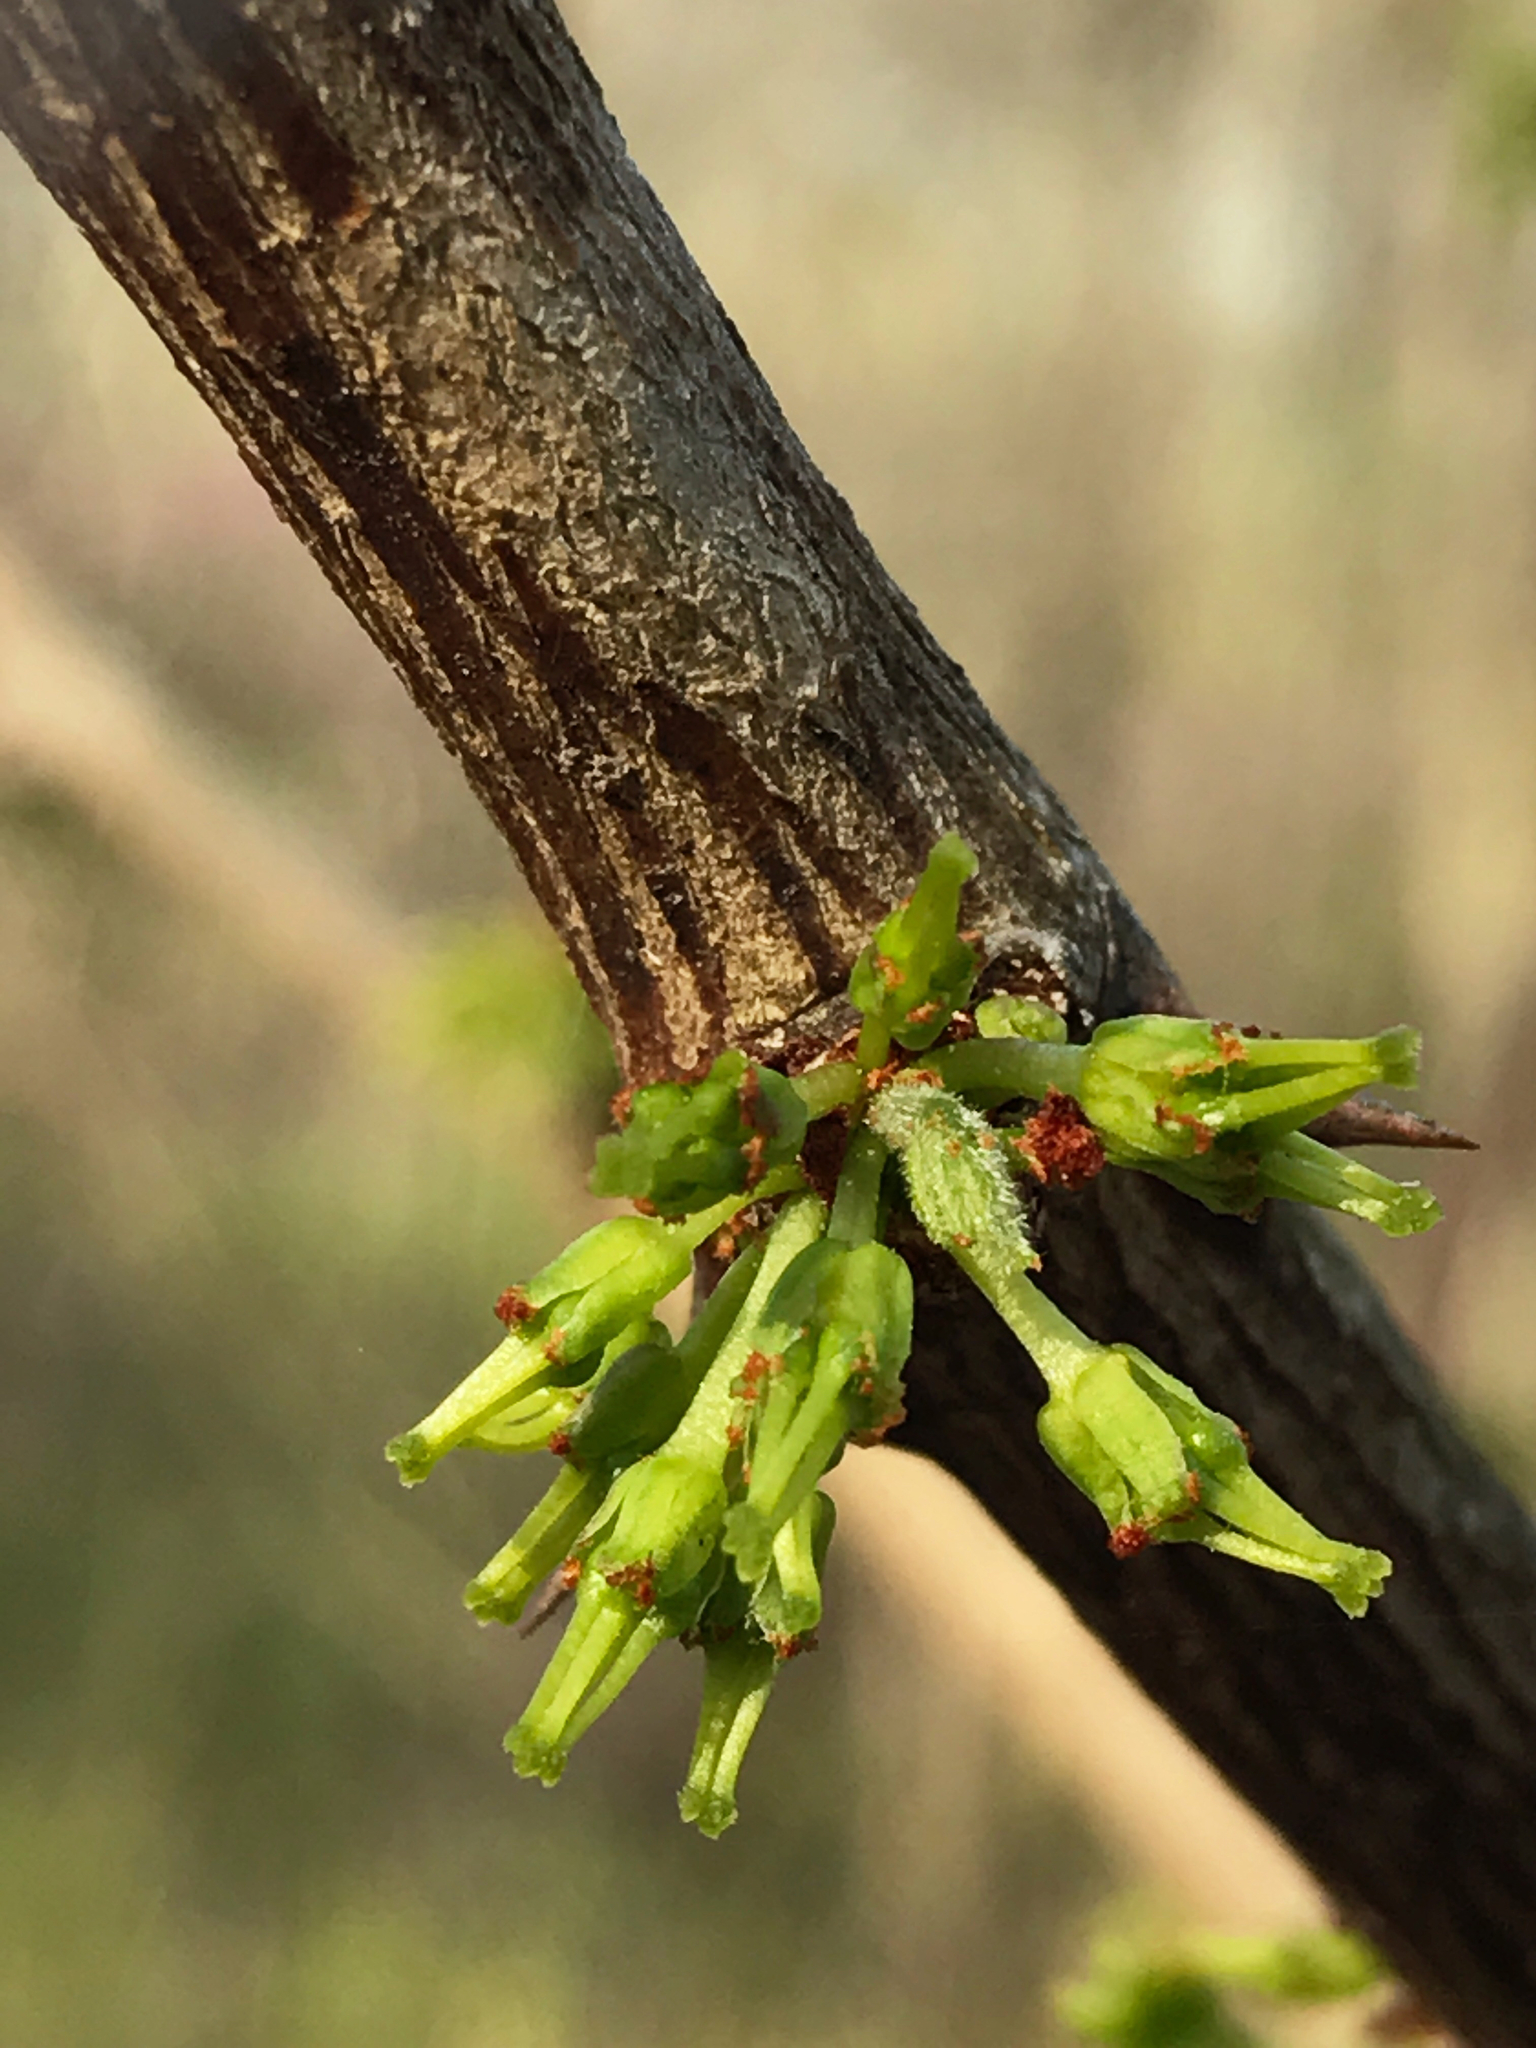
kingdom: Plantae
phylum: Tracheophyta
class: Magnoliopsida
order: Sapindales
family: Rutaceae
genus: Zanthoxylum
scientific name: Zanthoxylum americanum
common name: Northern prickly-ash
